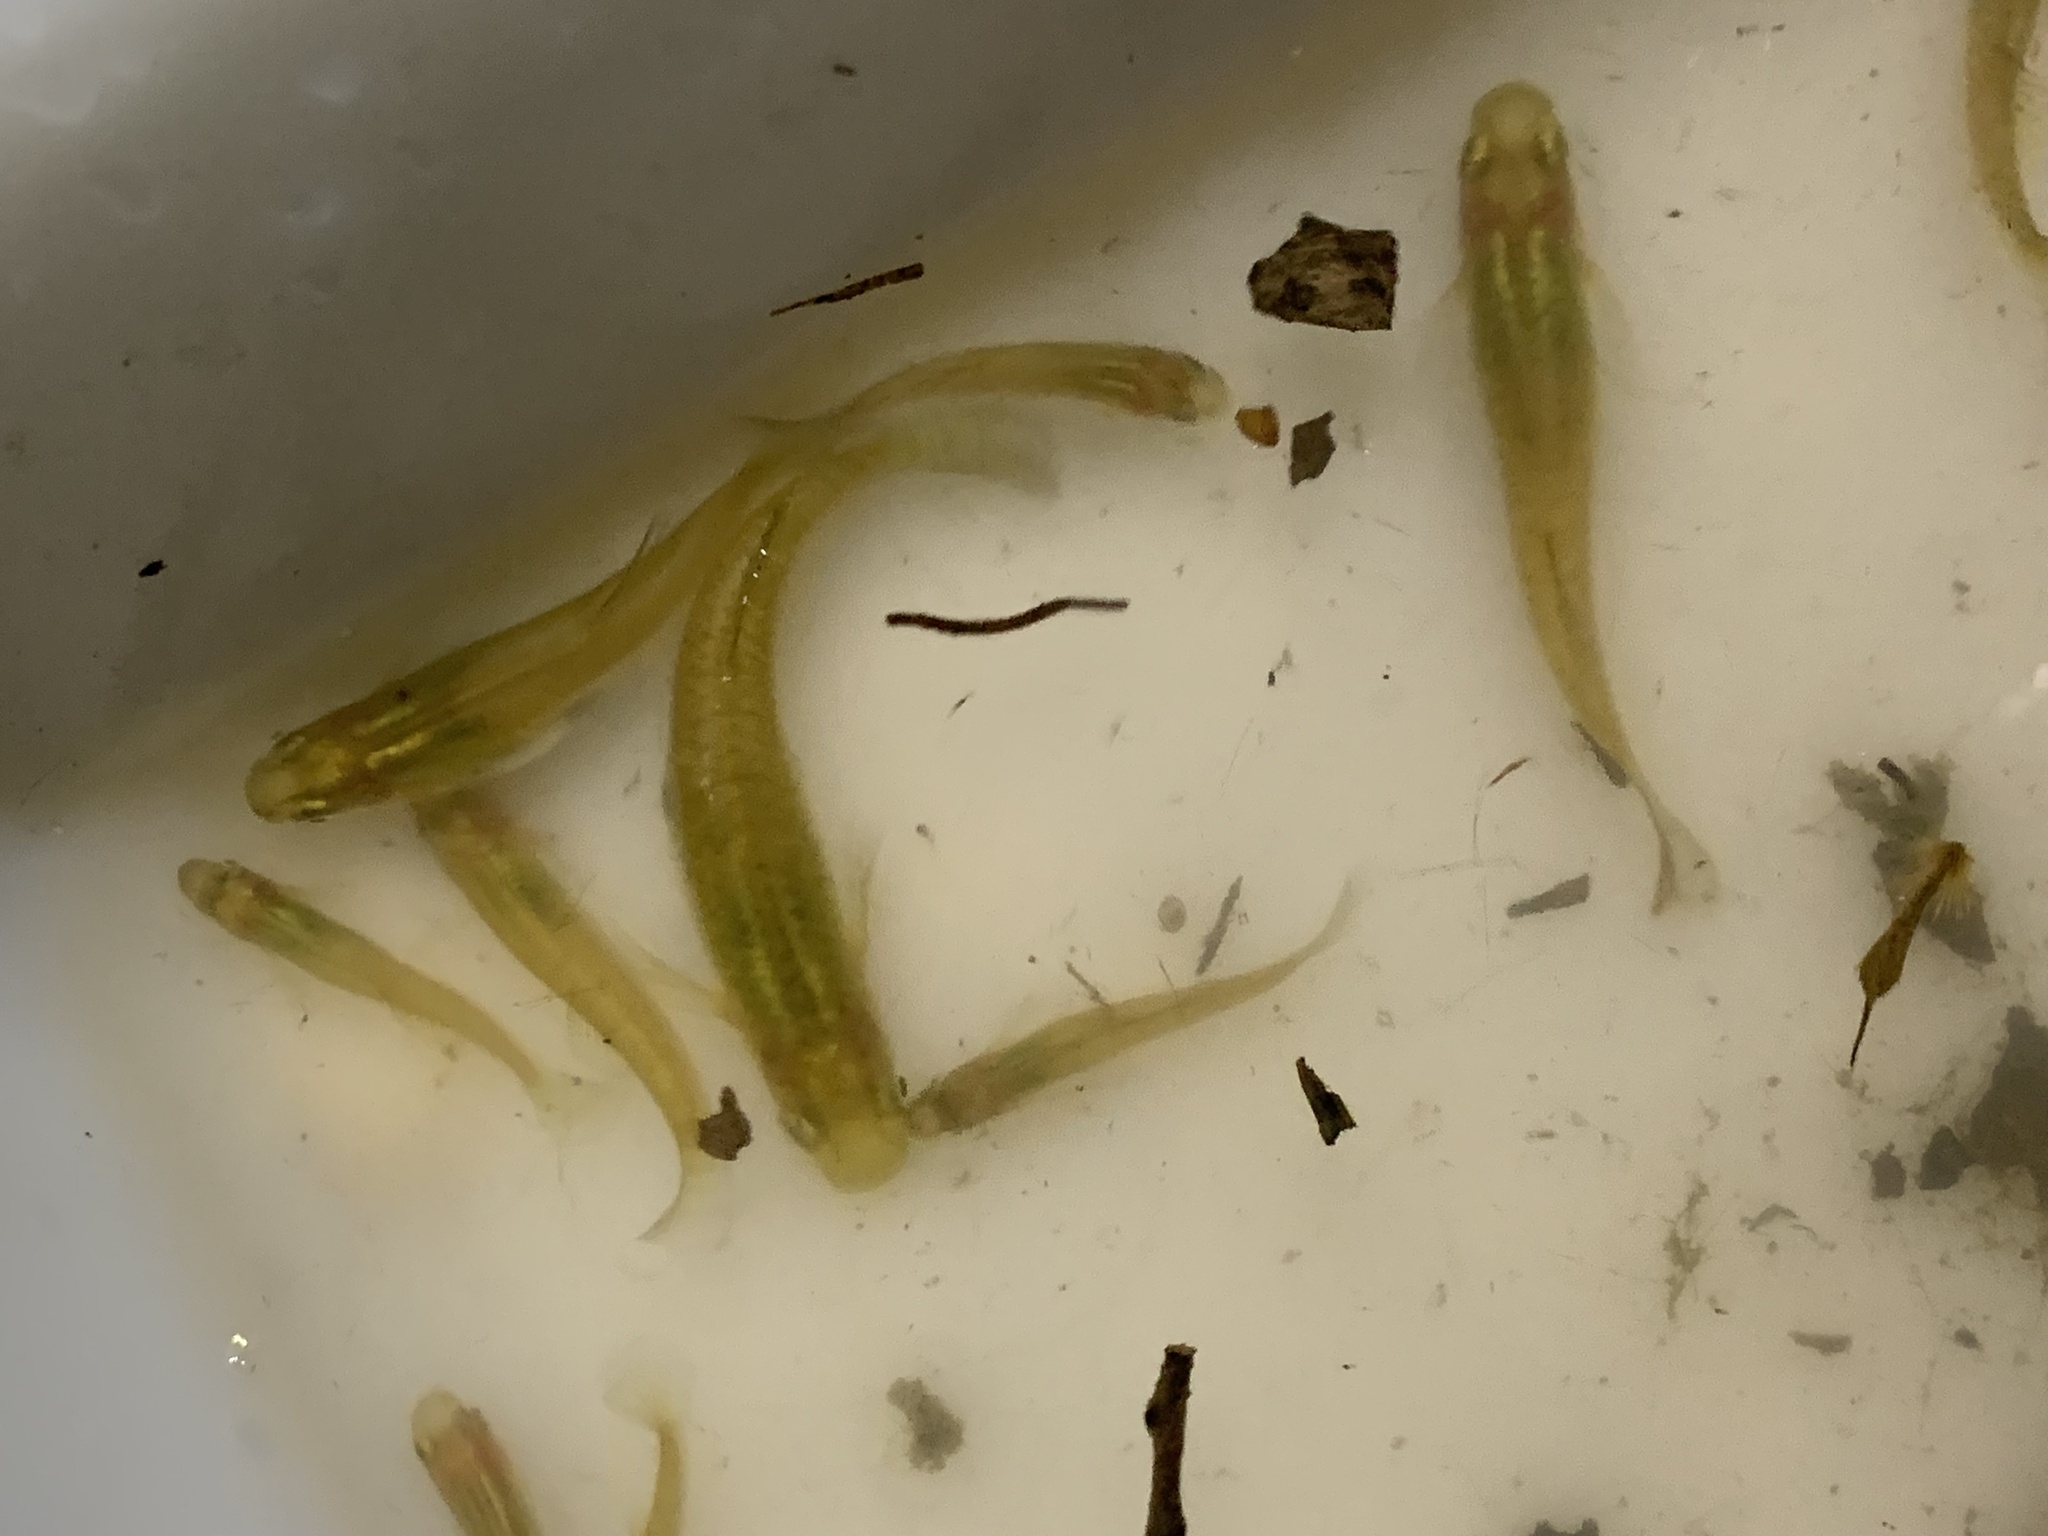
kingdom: Animalia
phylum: Chordata
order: Cyprinodontiformes
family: Poeciliidae
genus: Gambusia
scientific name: Gambusia holbrooki
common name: Eastern mosquitofish
